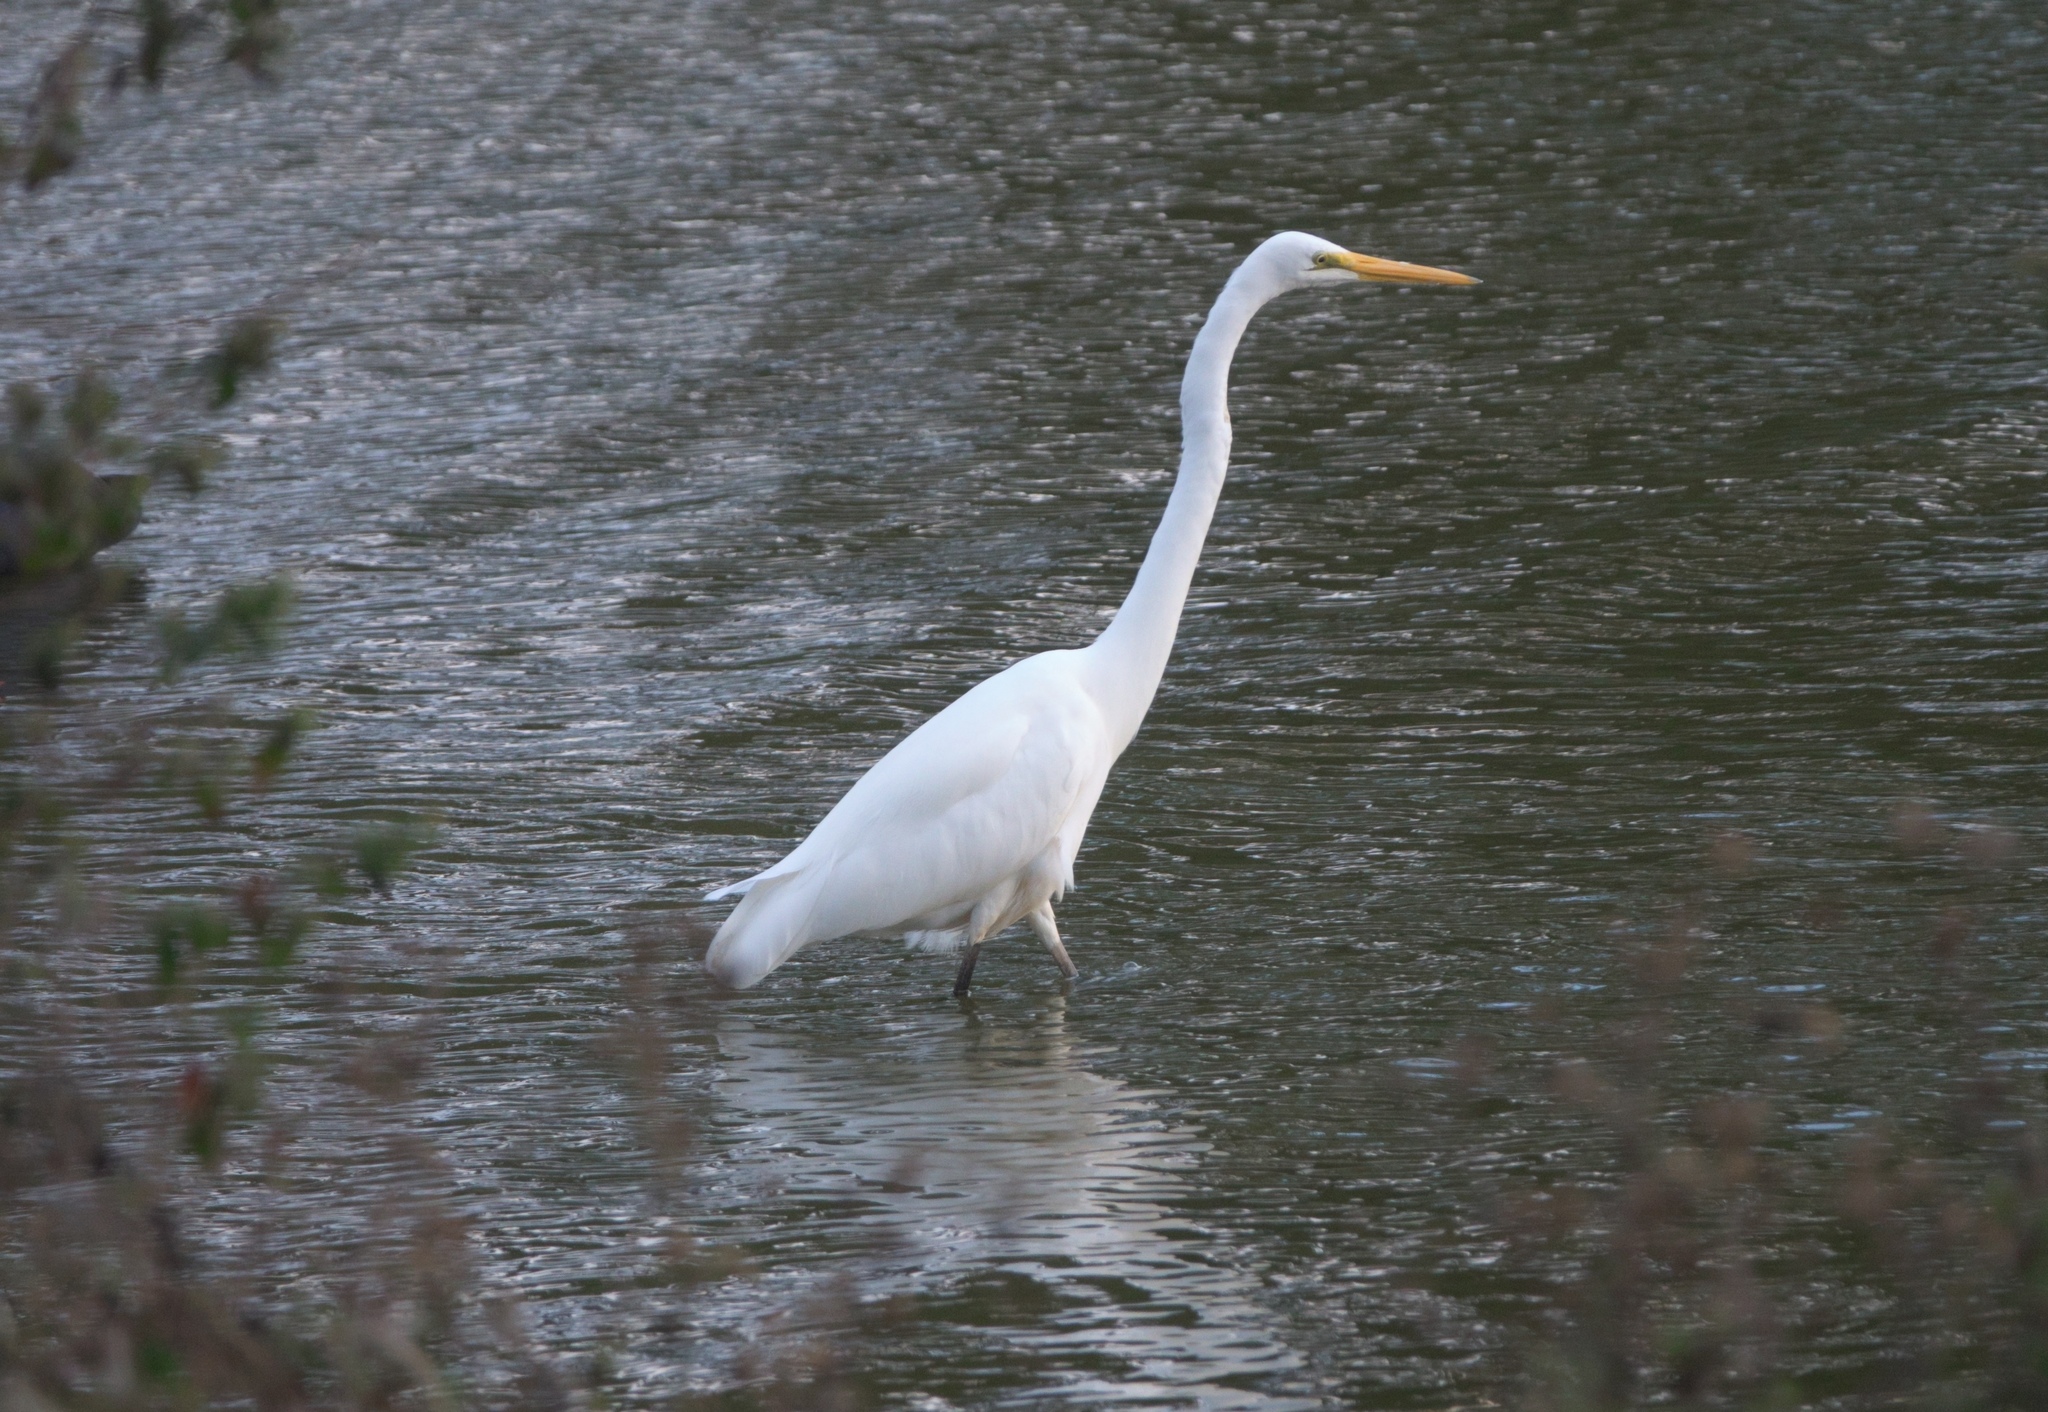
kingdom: Animalia
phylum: Chordata
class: Aves
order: Pelecaniformes
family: Ardeidae
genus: Ardea
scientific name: Ardea modesta
